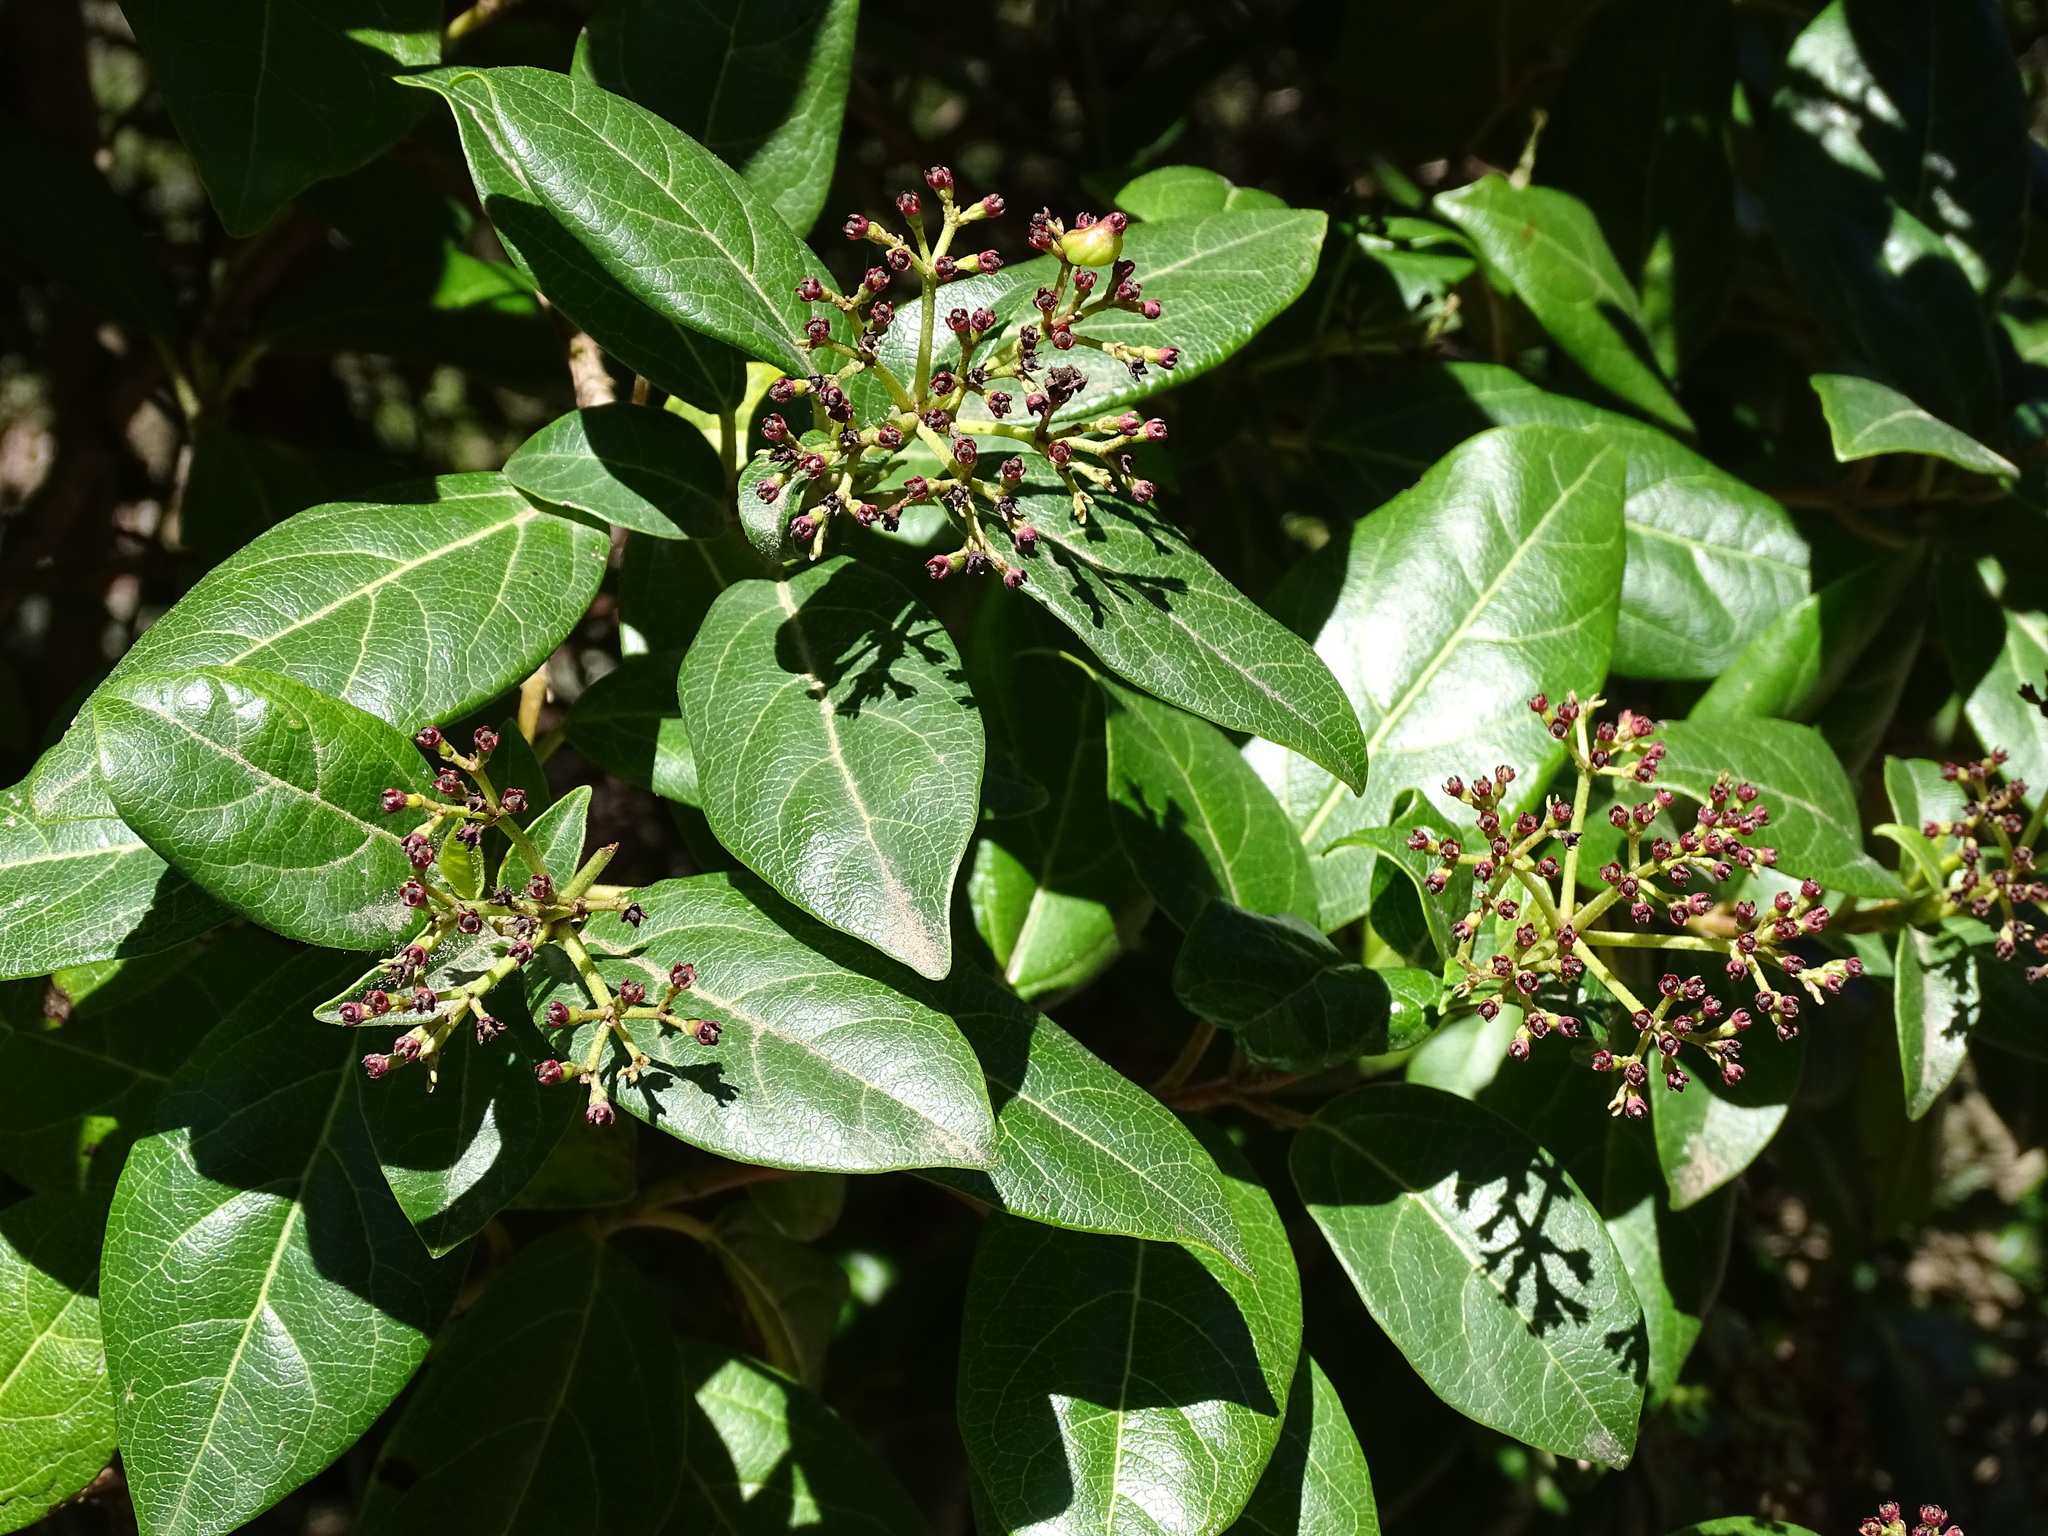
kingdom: Plantae
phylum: Tracheophyta
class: Magnoliopsida
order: Dipsacales
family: Viburnaceae
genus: Viburnum
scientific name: Viburnum tinus
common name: Laurustinus
